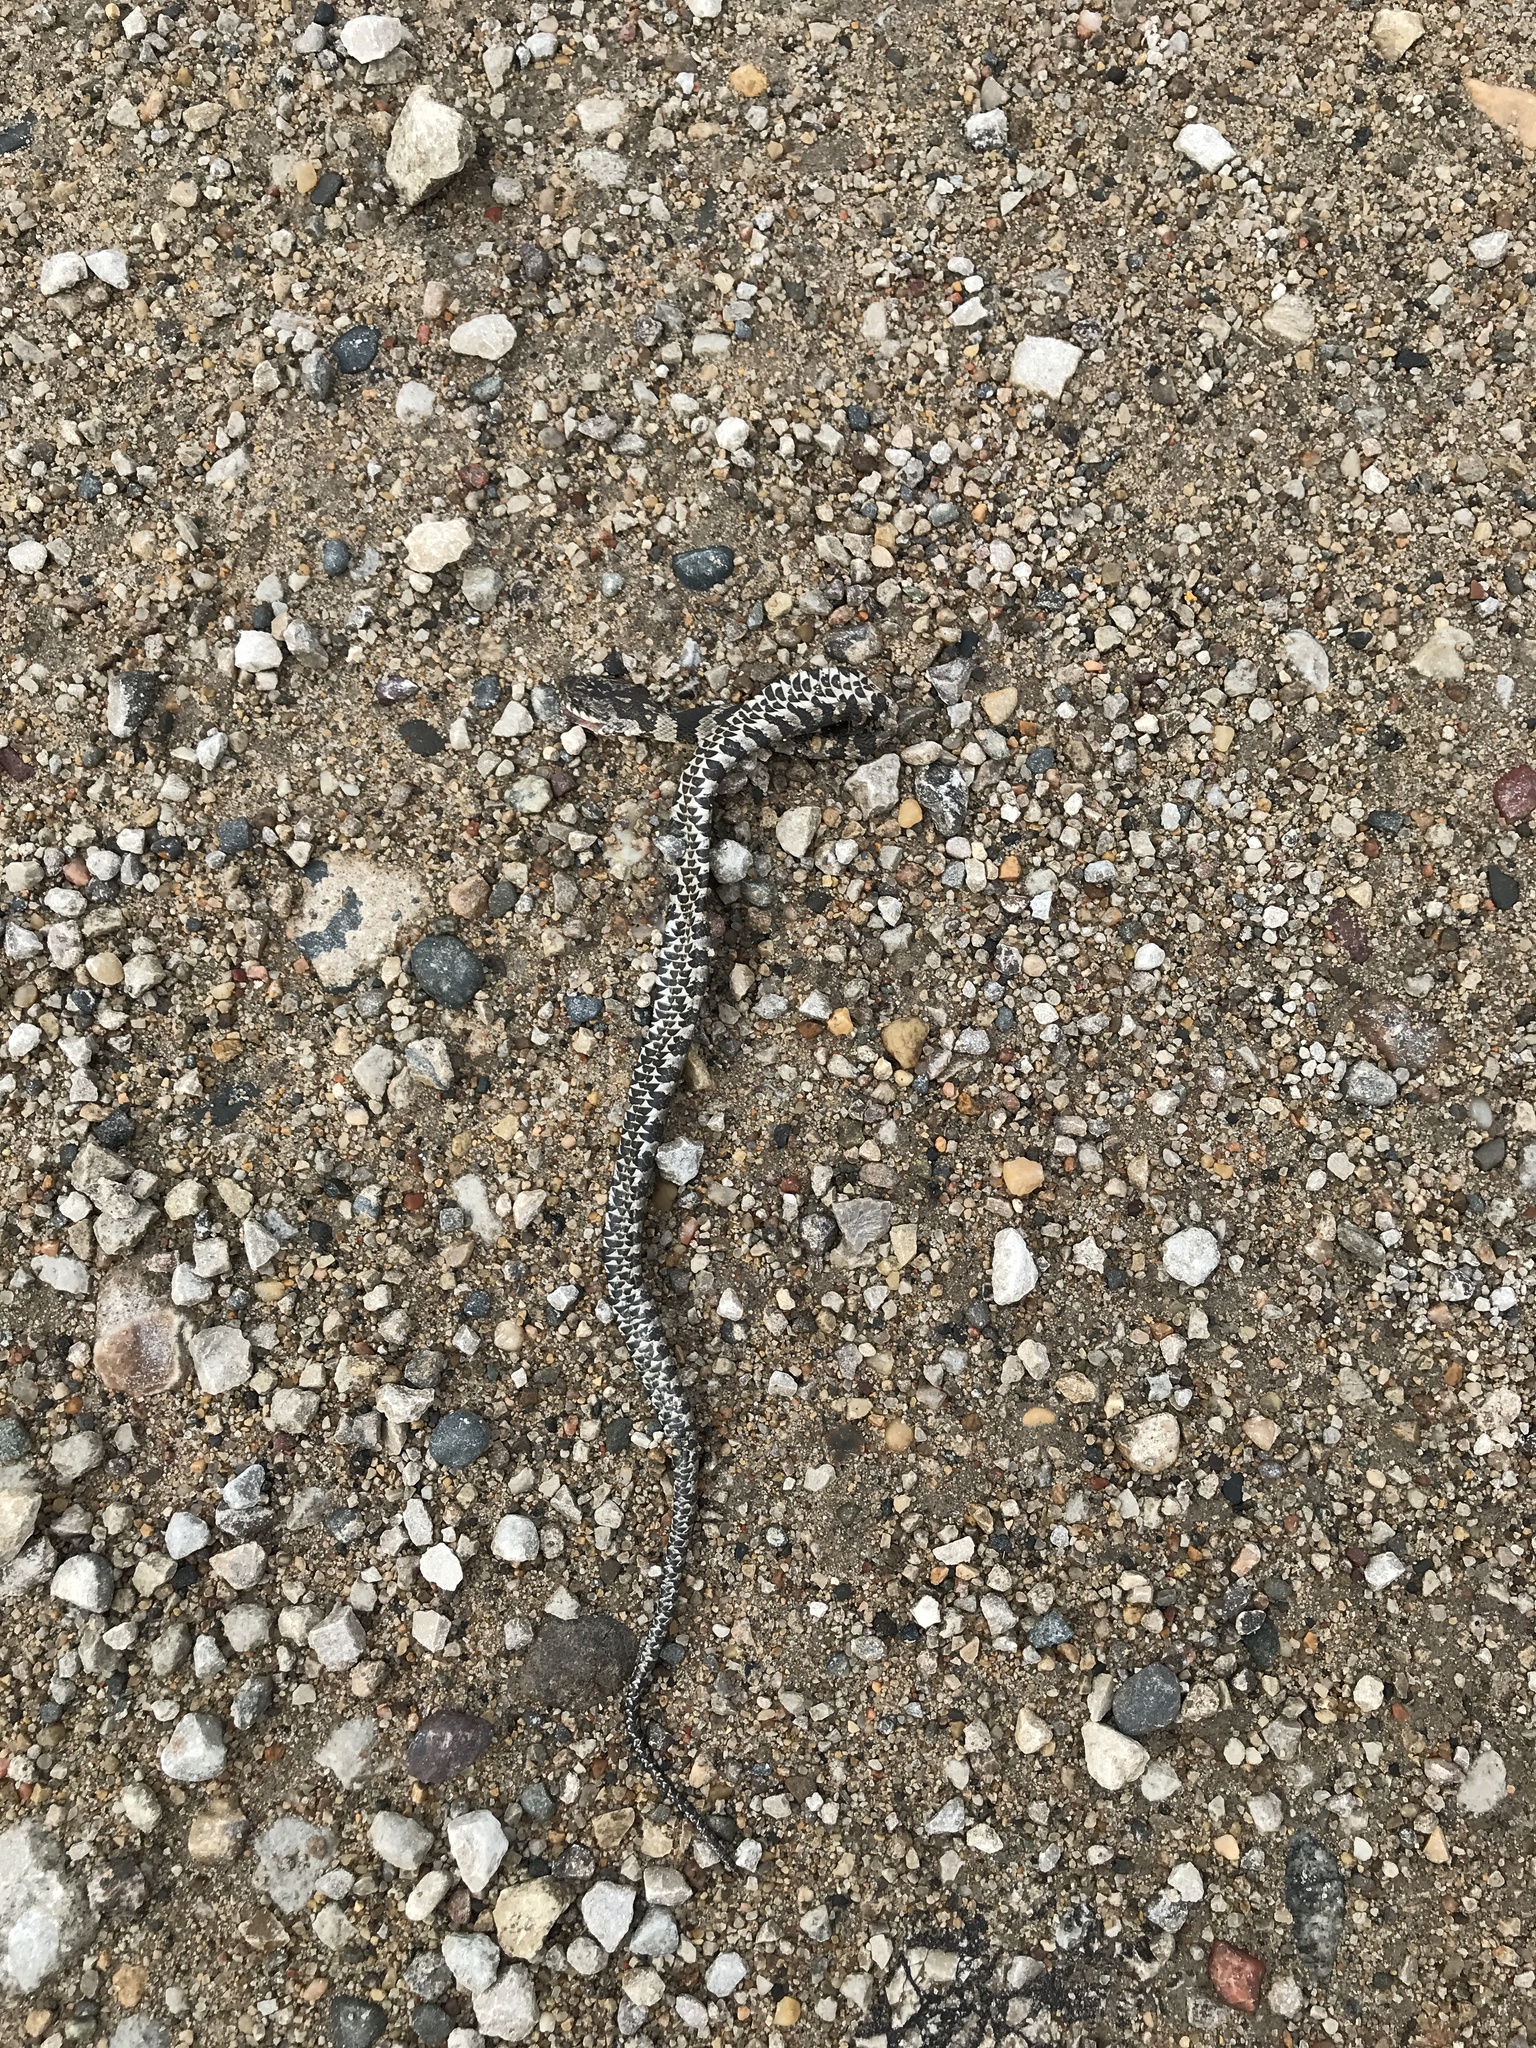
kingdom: Animalia
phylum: Chordata
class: Squamata
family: Colubridae
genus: Nerodia
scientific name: Nerodia sipedon
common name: Northern water snake
